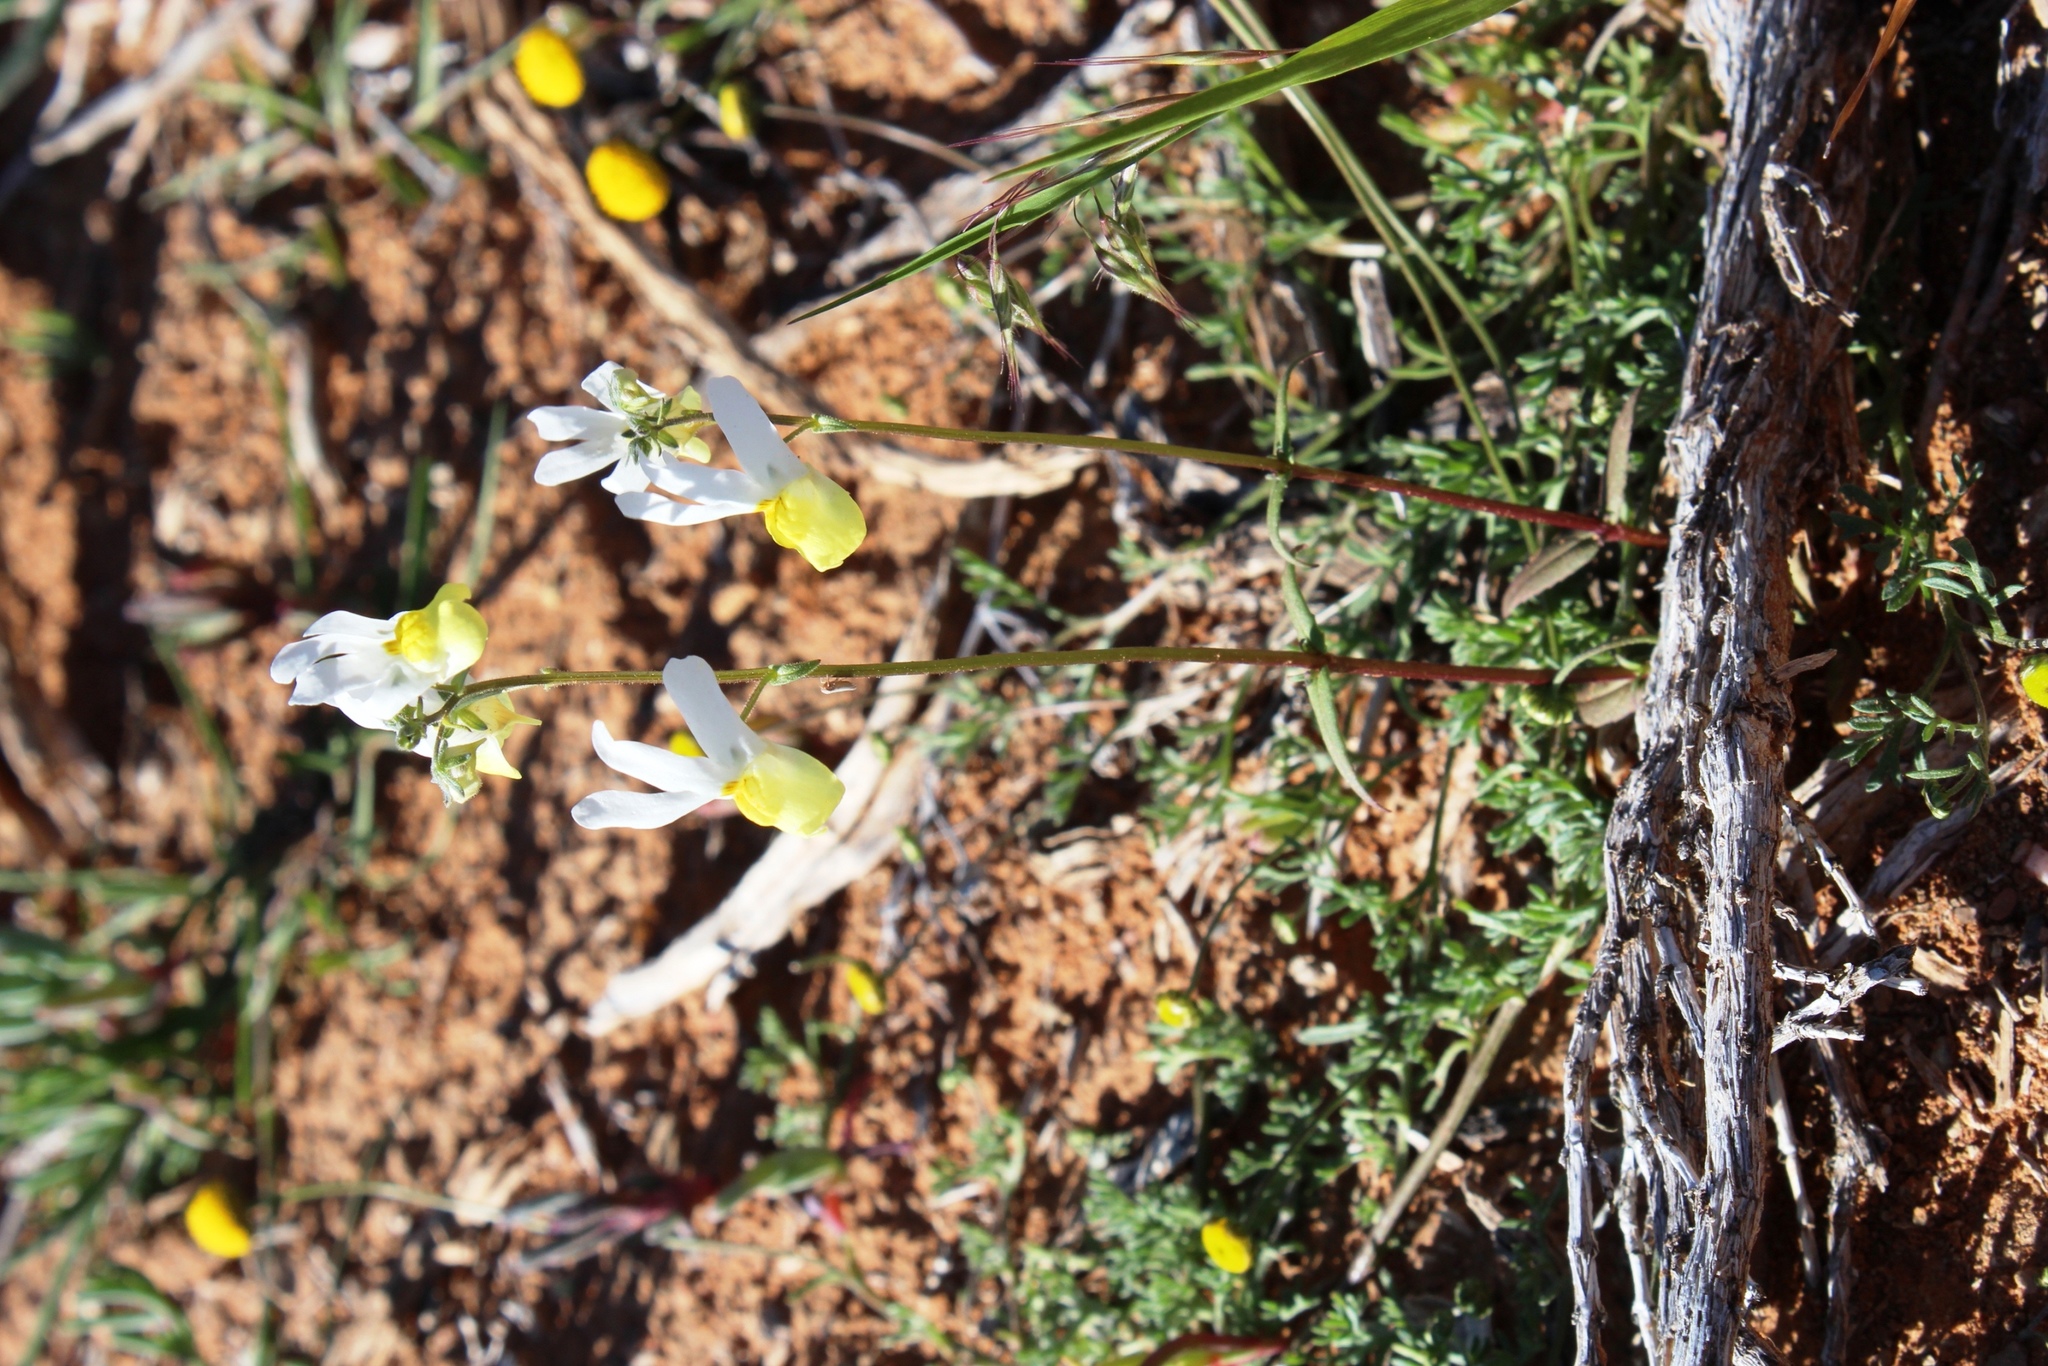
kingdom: Plantae
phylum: Tracheophyta
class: Magnoliopsida
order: Lamiales
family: Scrophulariaceae
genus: Nemesia
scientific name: Nemesia anisocarpa
